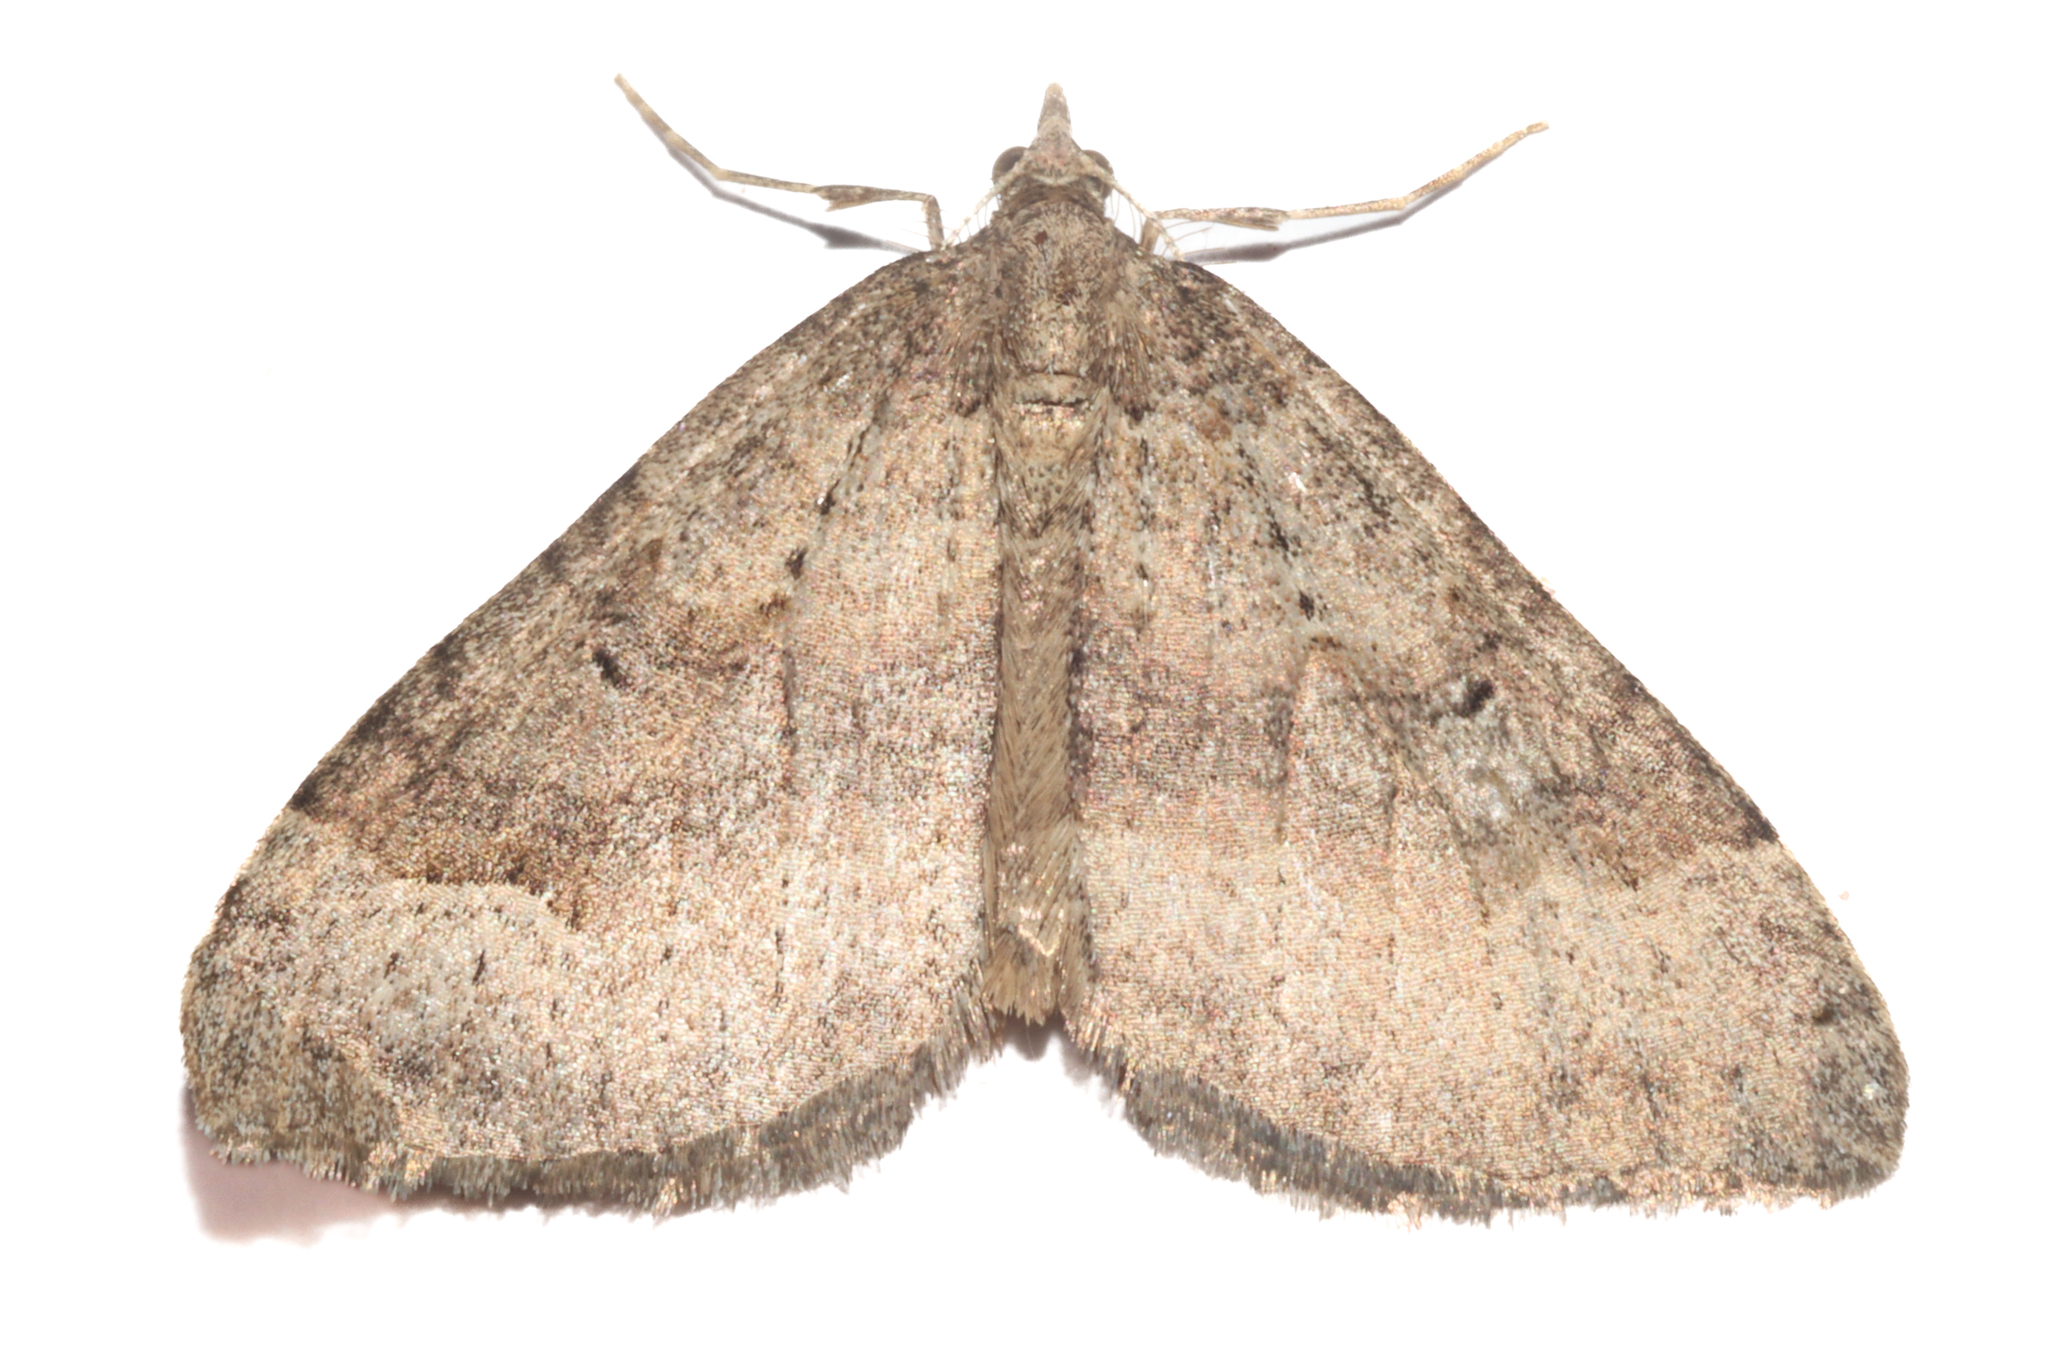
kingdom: Animalia
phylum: Arthropoda
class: Insecta
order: Lepidoptera
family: Geometridae
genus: Epyaxa
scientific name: Epyaxa rosearia
